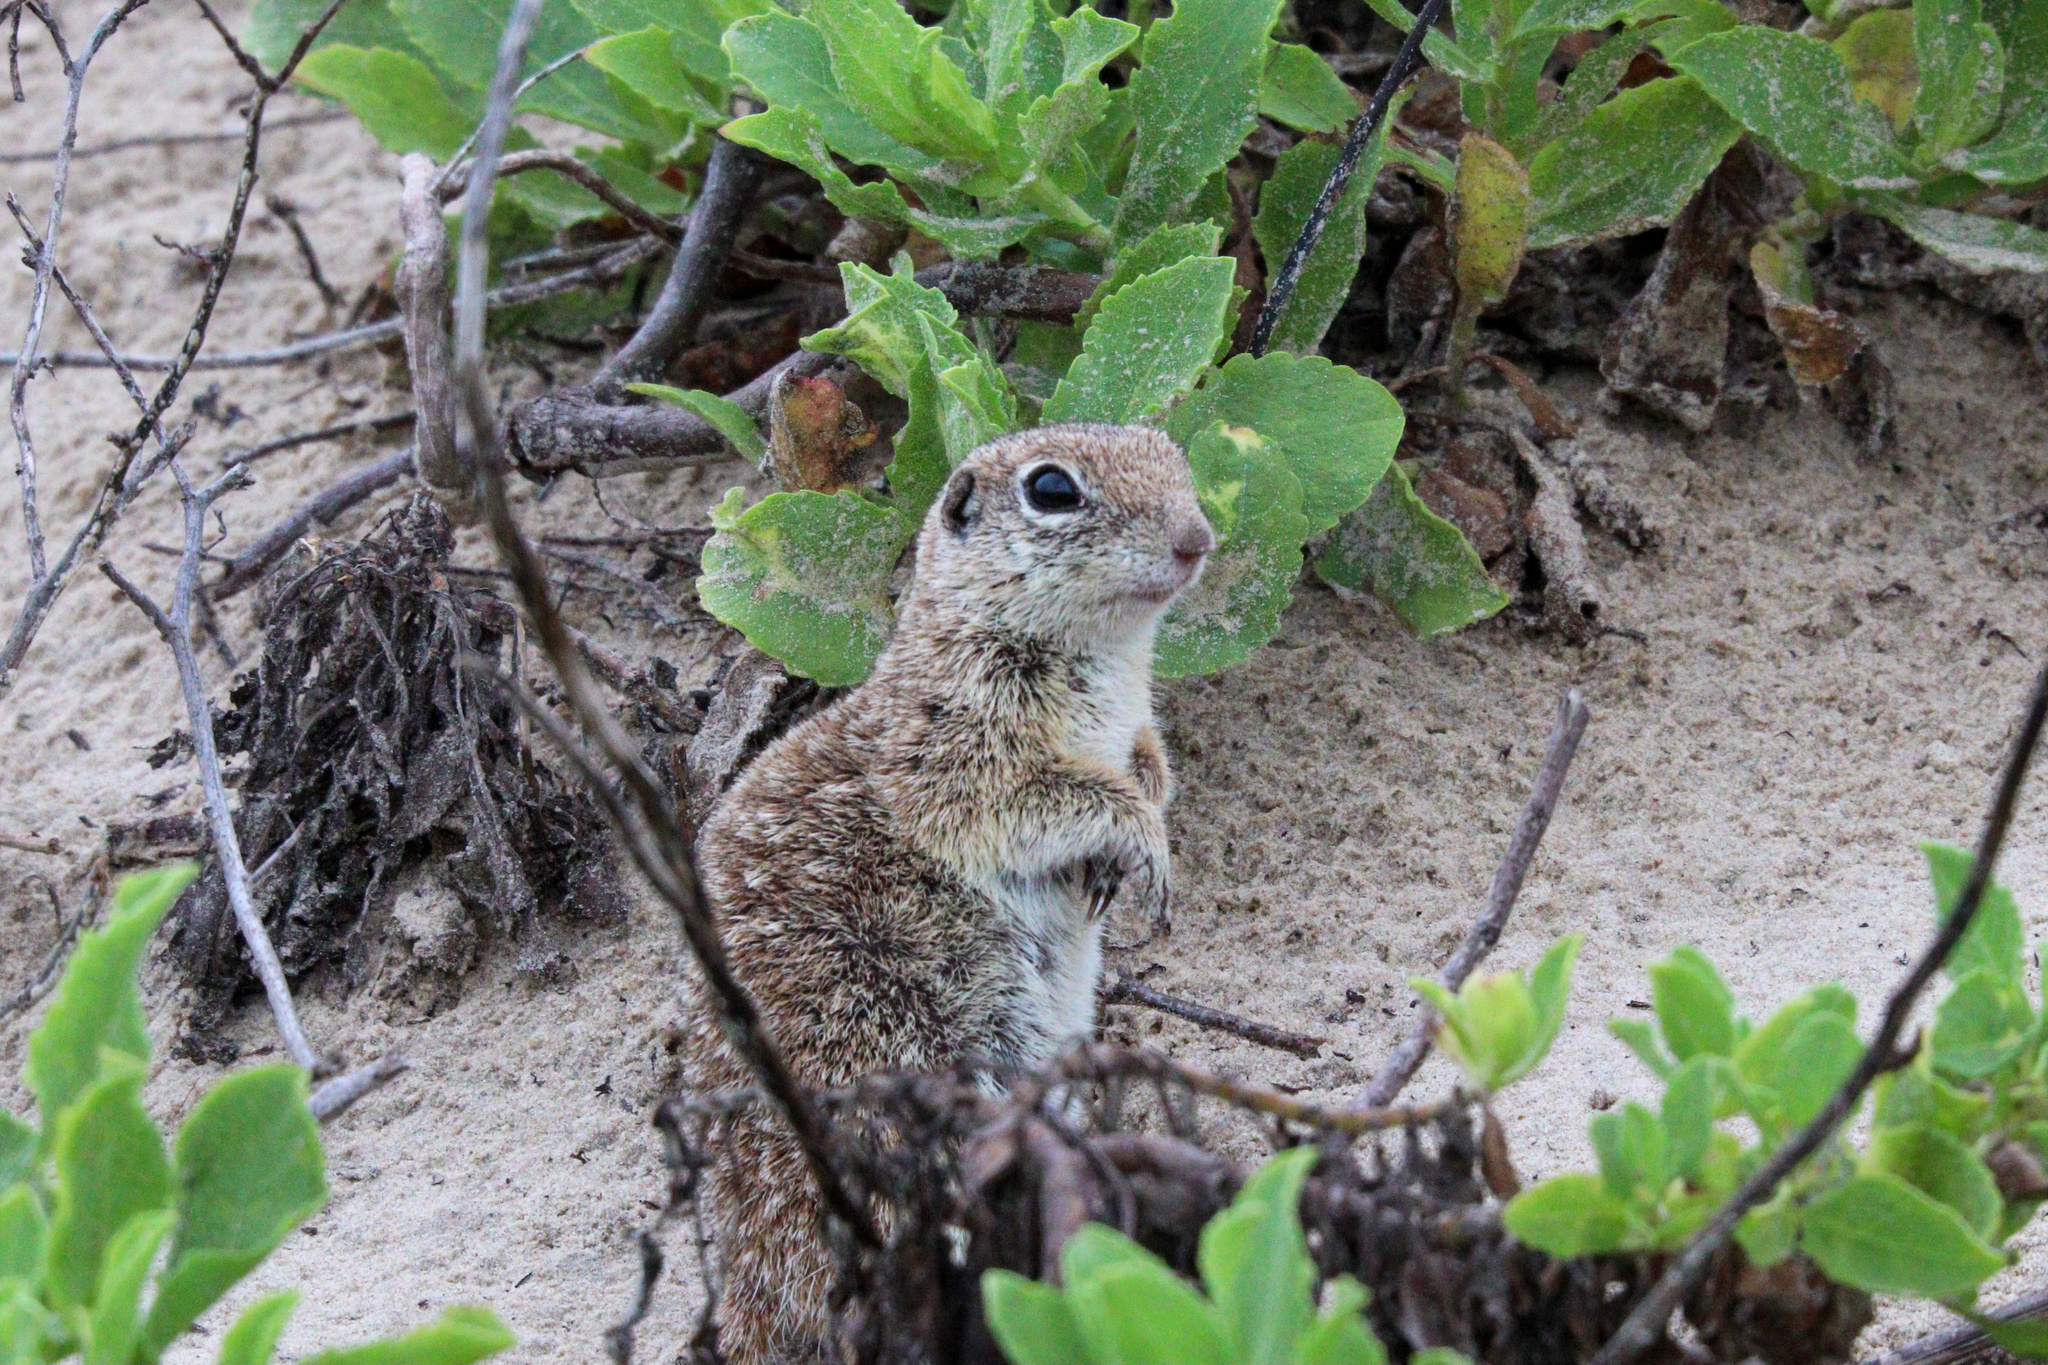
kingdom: Animalia
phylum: Chordata
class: Mammalia
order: Rodentia
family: Sciuridae
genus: Xerospermophilus
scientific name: Xerospermophilus spilosoma
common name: Spotted ground squirrel
